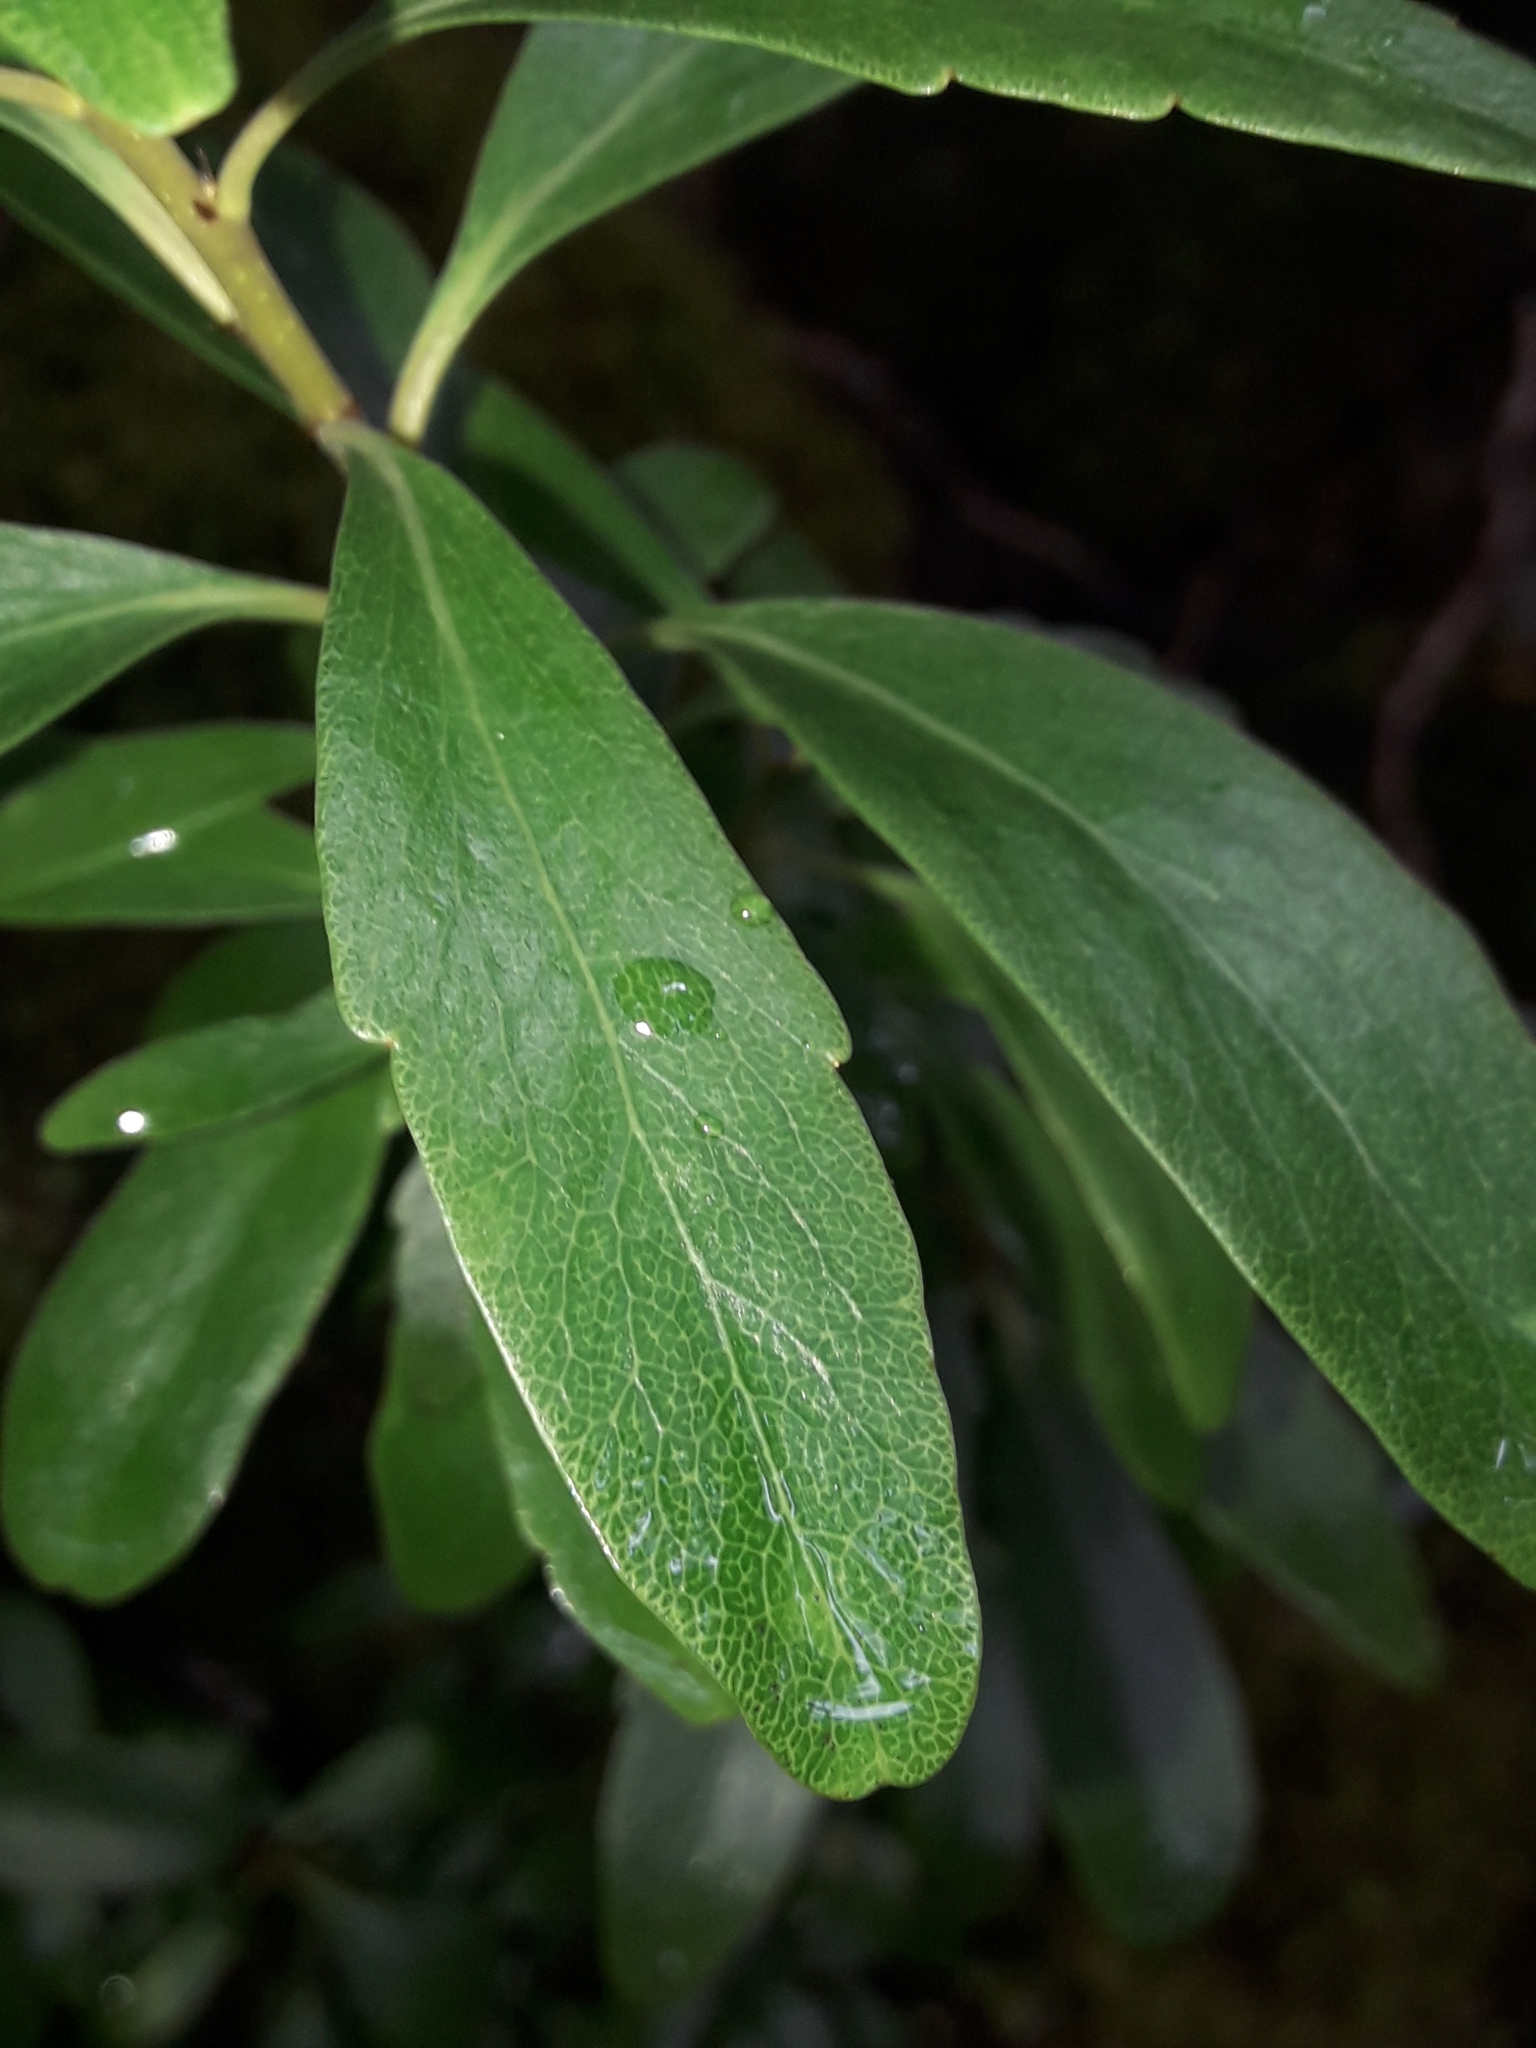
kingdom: Plantae
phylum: Tracheophyta
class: Magnoliopsida
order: Malpighiales
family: Violaceae
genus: Melicytus
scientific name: Melicytus obovatus
